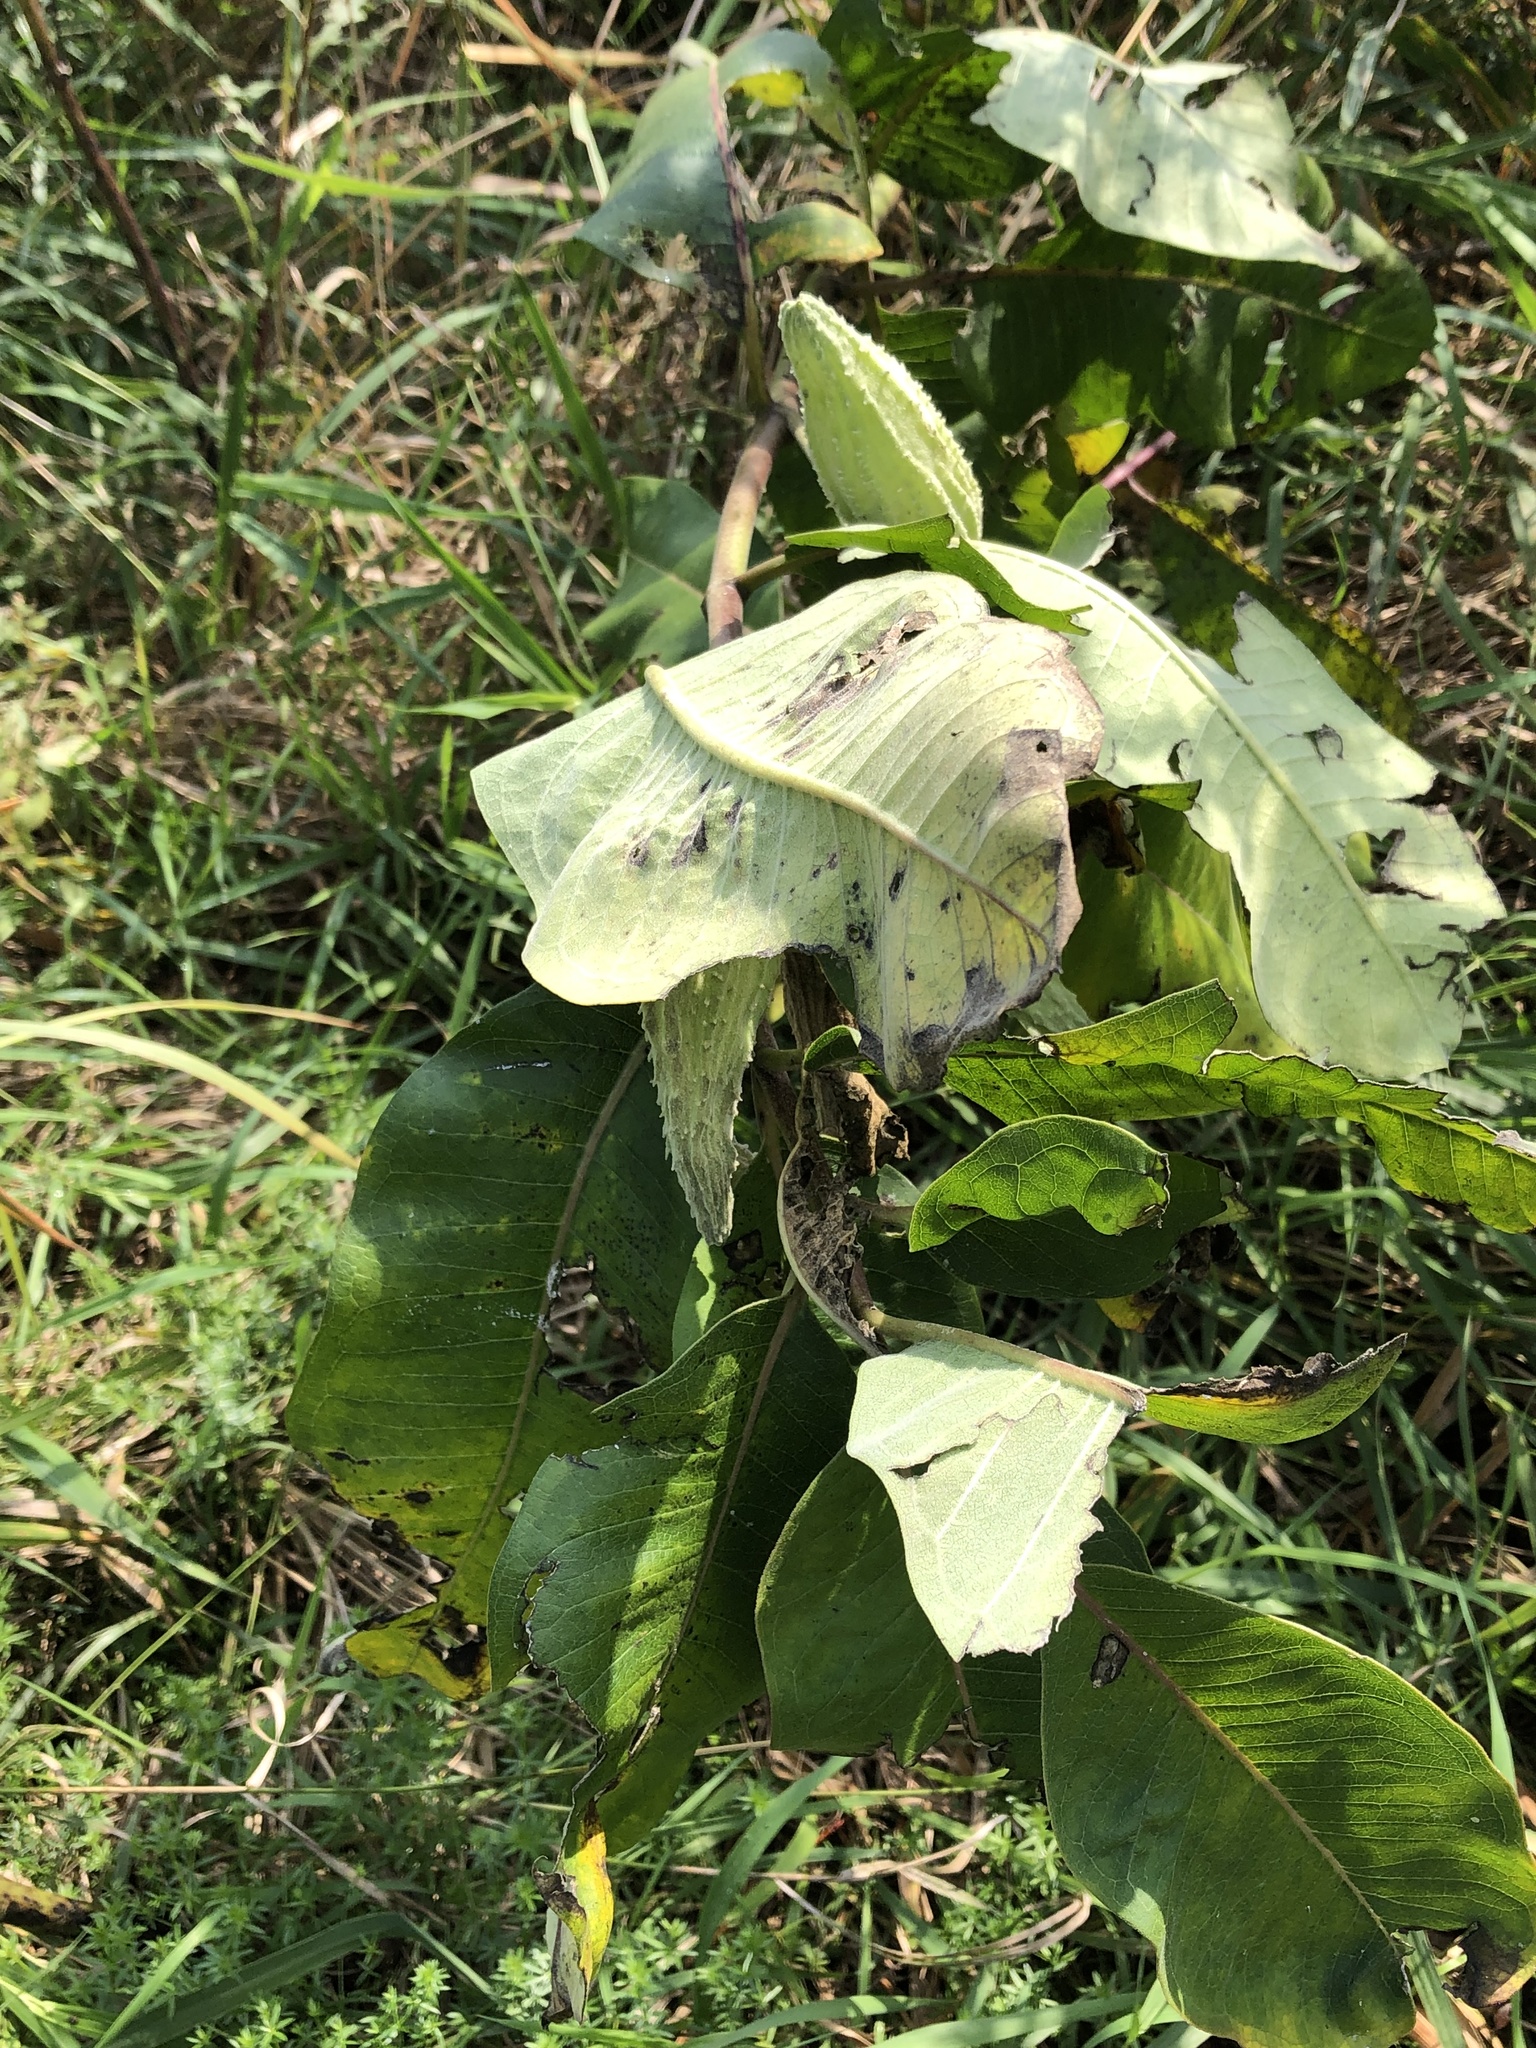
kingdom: Plantae
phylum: Tracheophyta
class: Magnoliopsida
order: Gentianales
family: Apocynaceae
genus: Asclepias
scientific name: Asclepias syriaca
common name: Common milkweed
